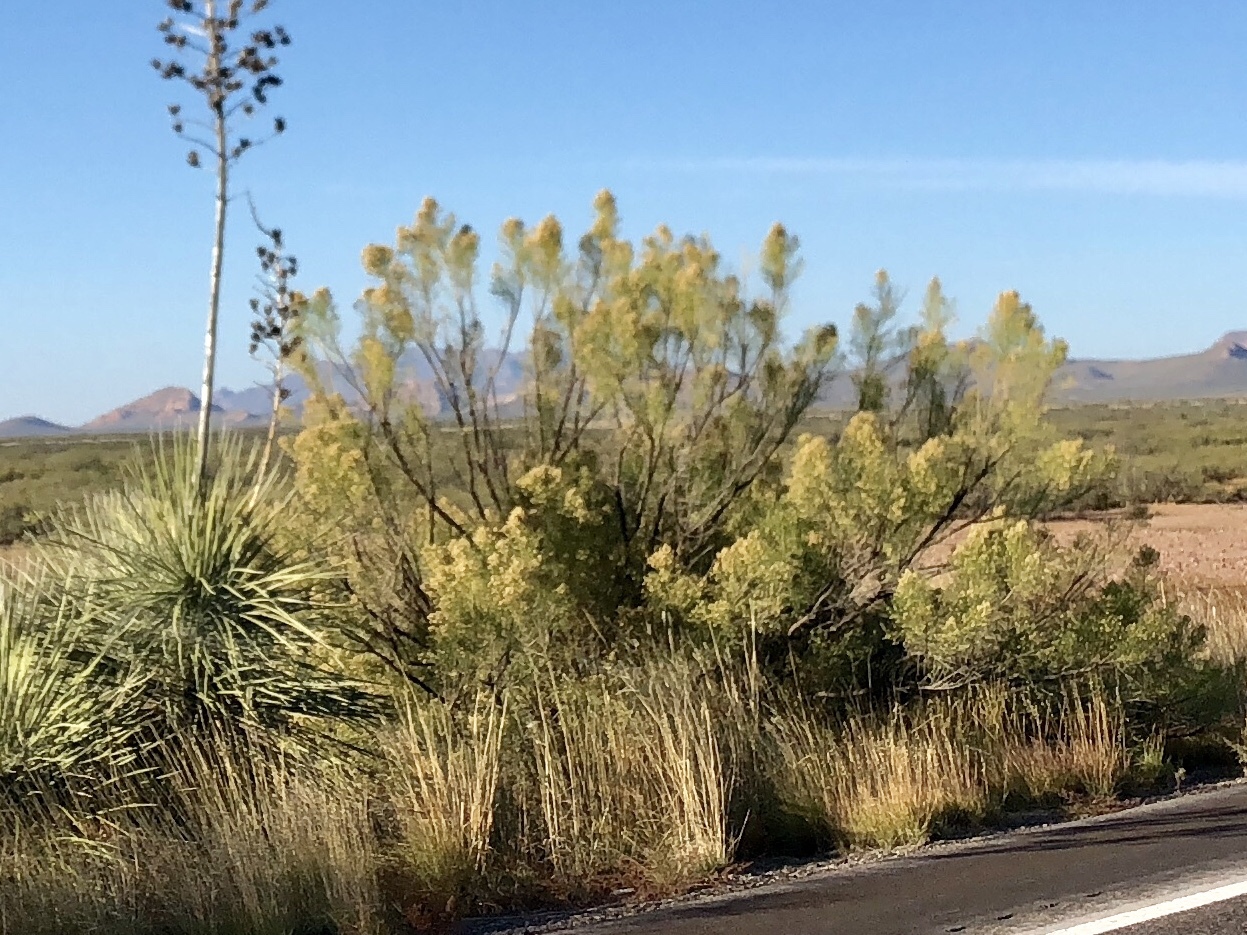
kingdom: Plantae
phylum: Tracheophyta
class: Magnoliopsida
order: Asterales
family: Asteraceae
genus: Baccharis
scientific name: Baccharis sarothroides
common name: Desert-broom
